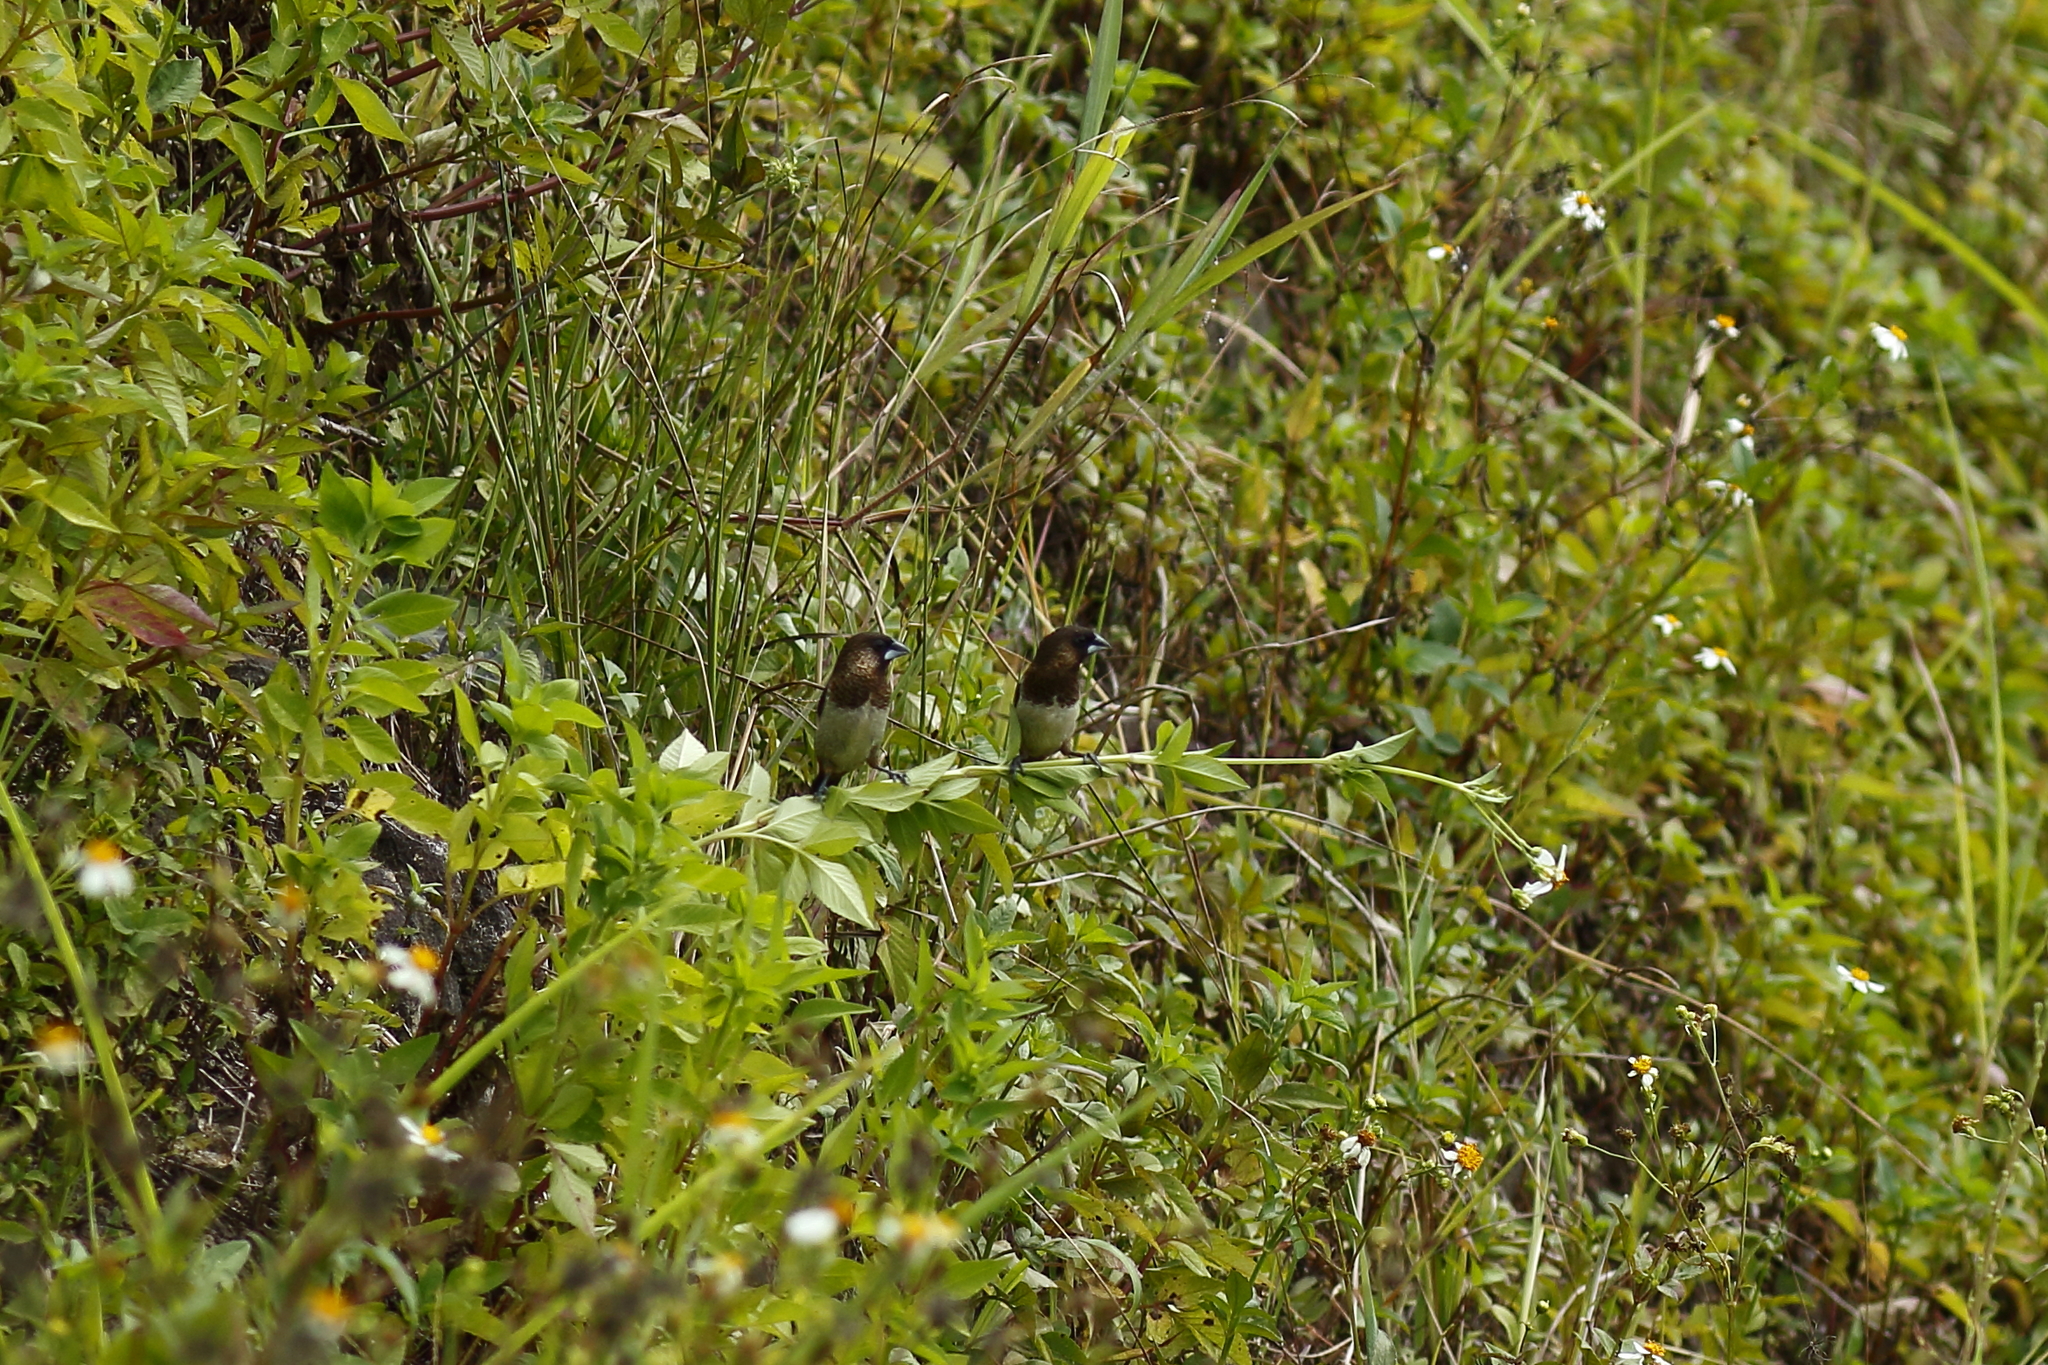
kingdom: Animalia
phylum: Chordata
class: Aves
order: Passeriformes
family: Estrildidae
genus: Lonchura
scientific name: Lonchura striata
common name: White-rumped munia
